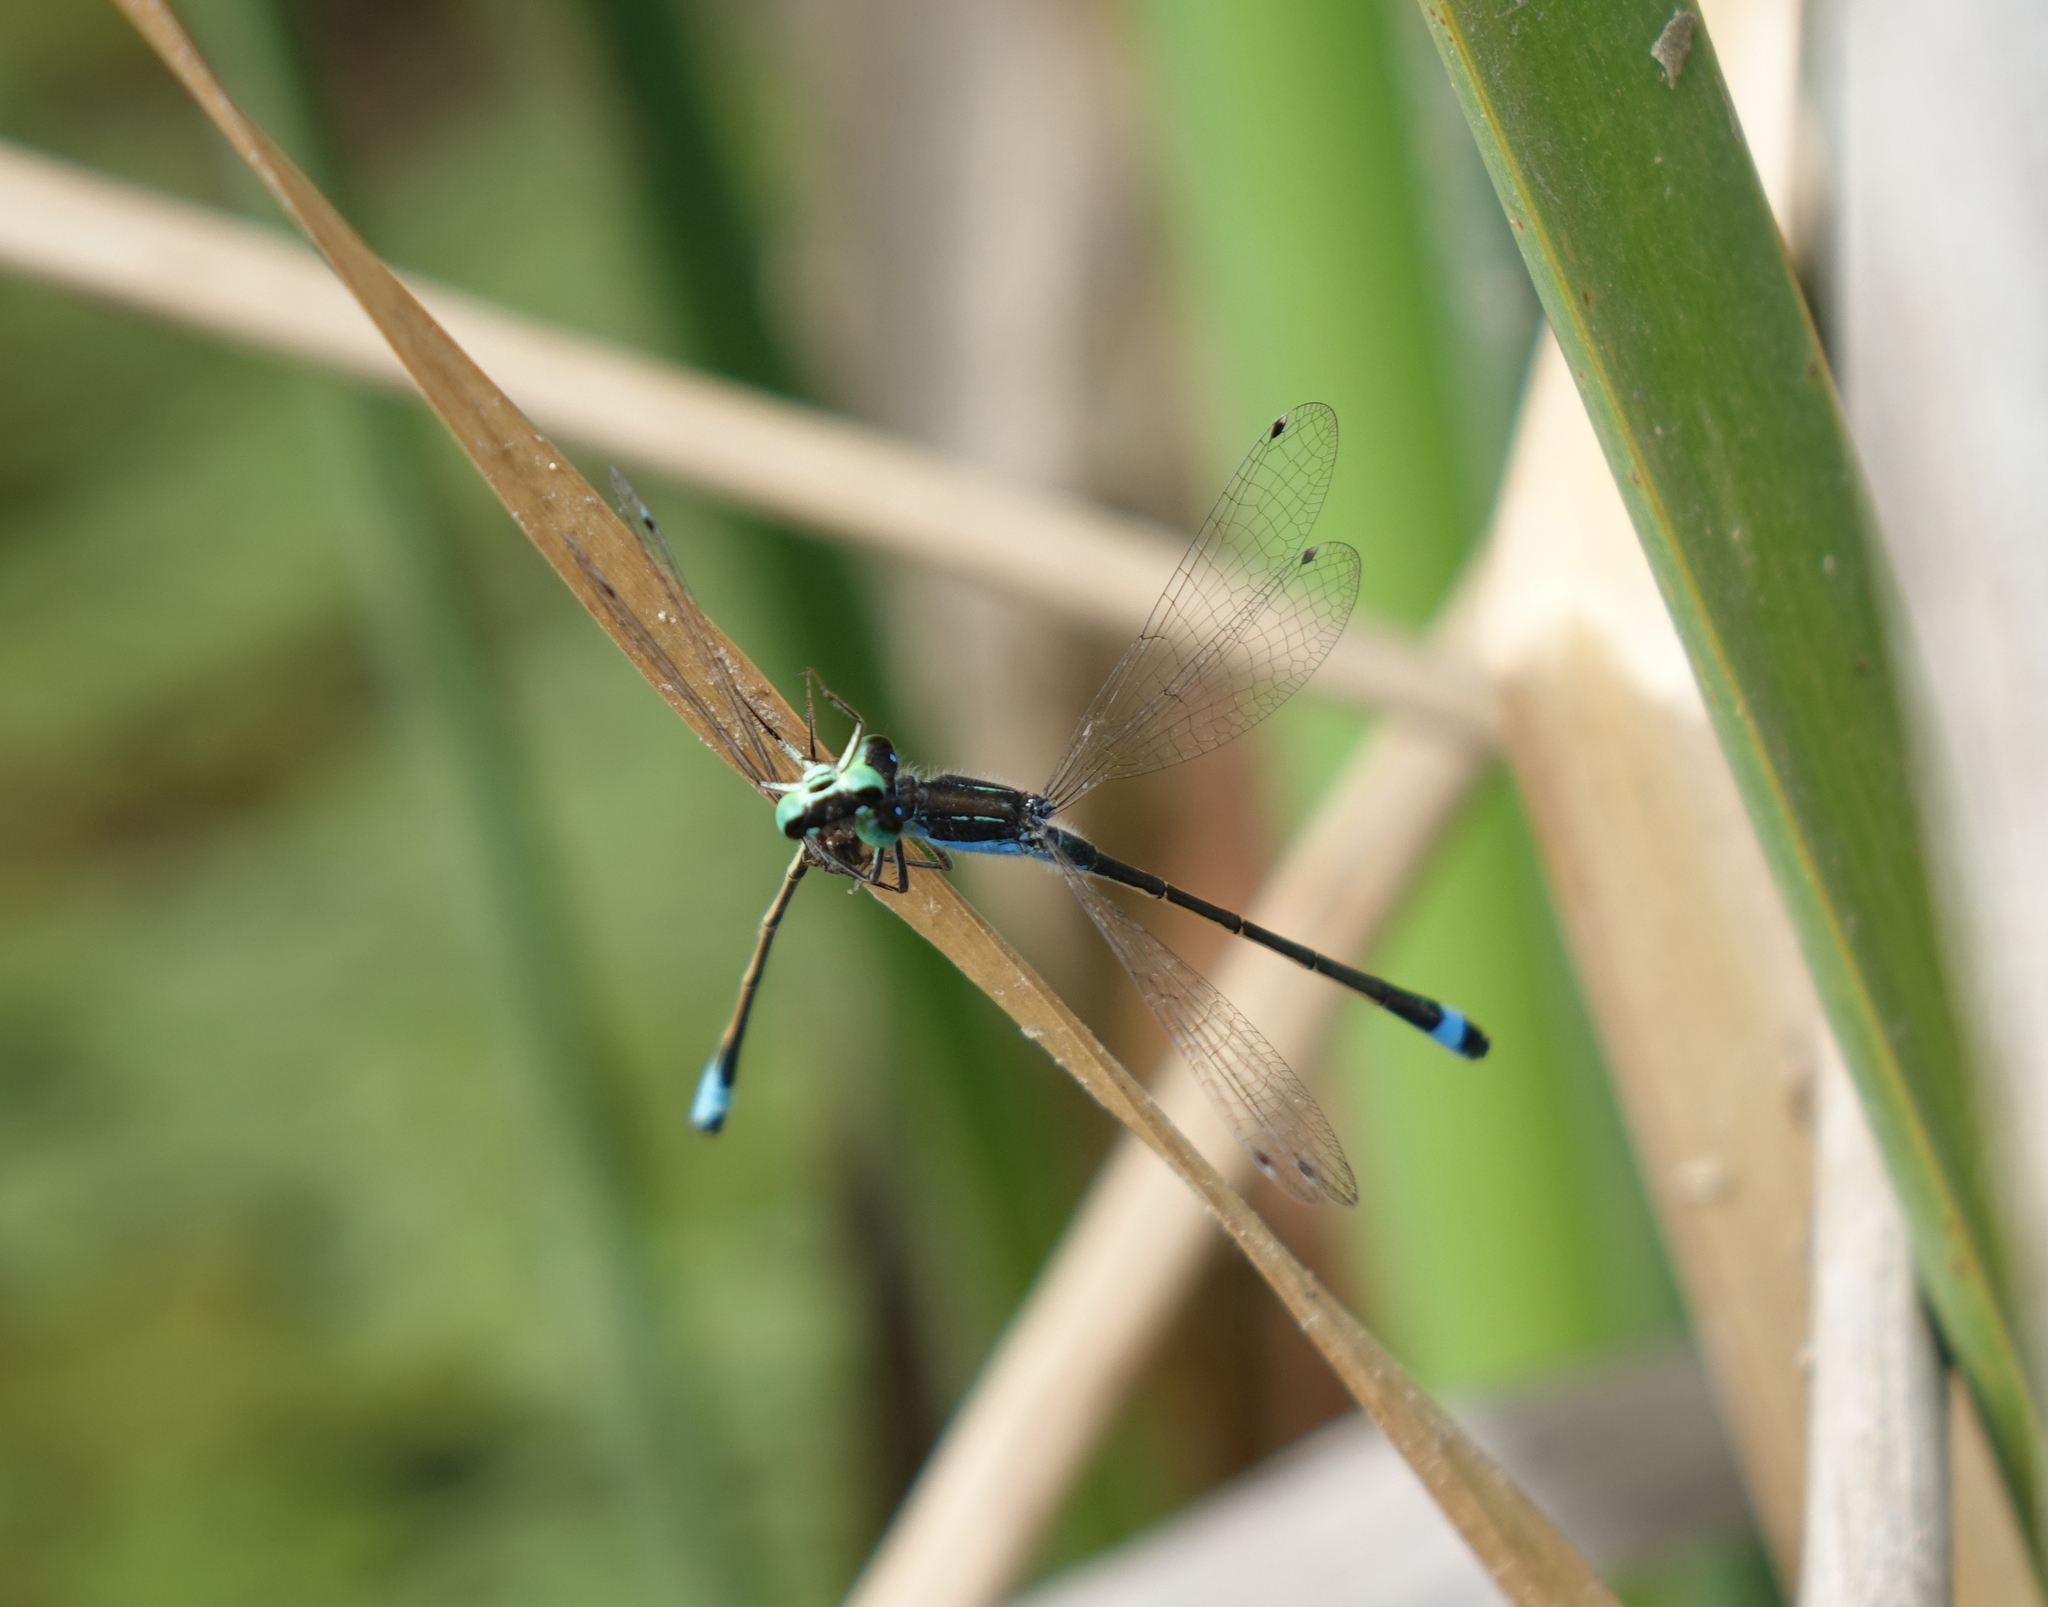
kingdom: Animalia
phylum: Arthropoda
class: Insecta
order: Odonata
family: Coenagrionidae
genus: Ischnura
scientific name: Ischnura fountaineae
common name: Oasis bluetail
